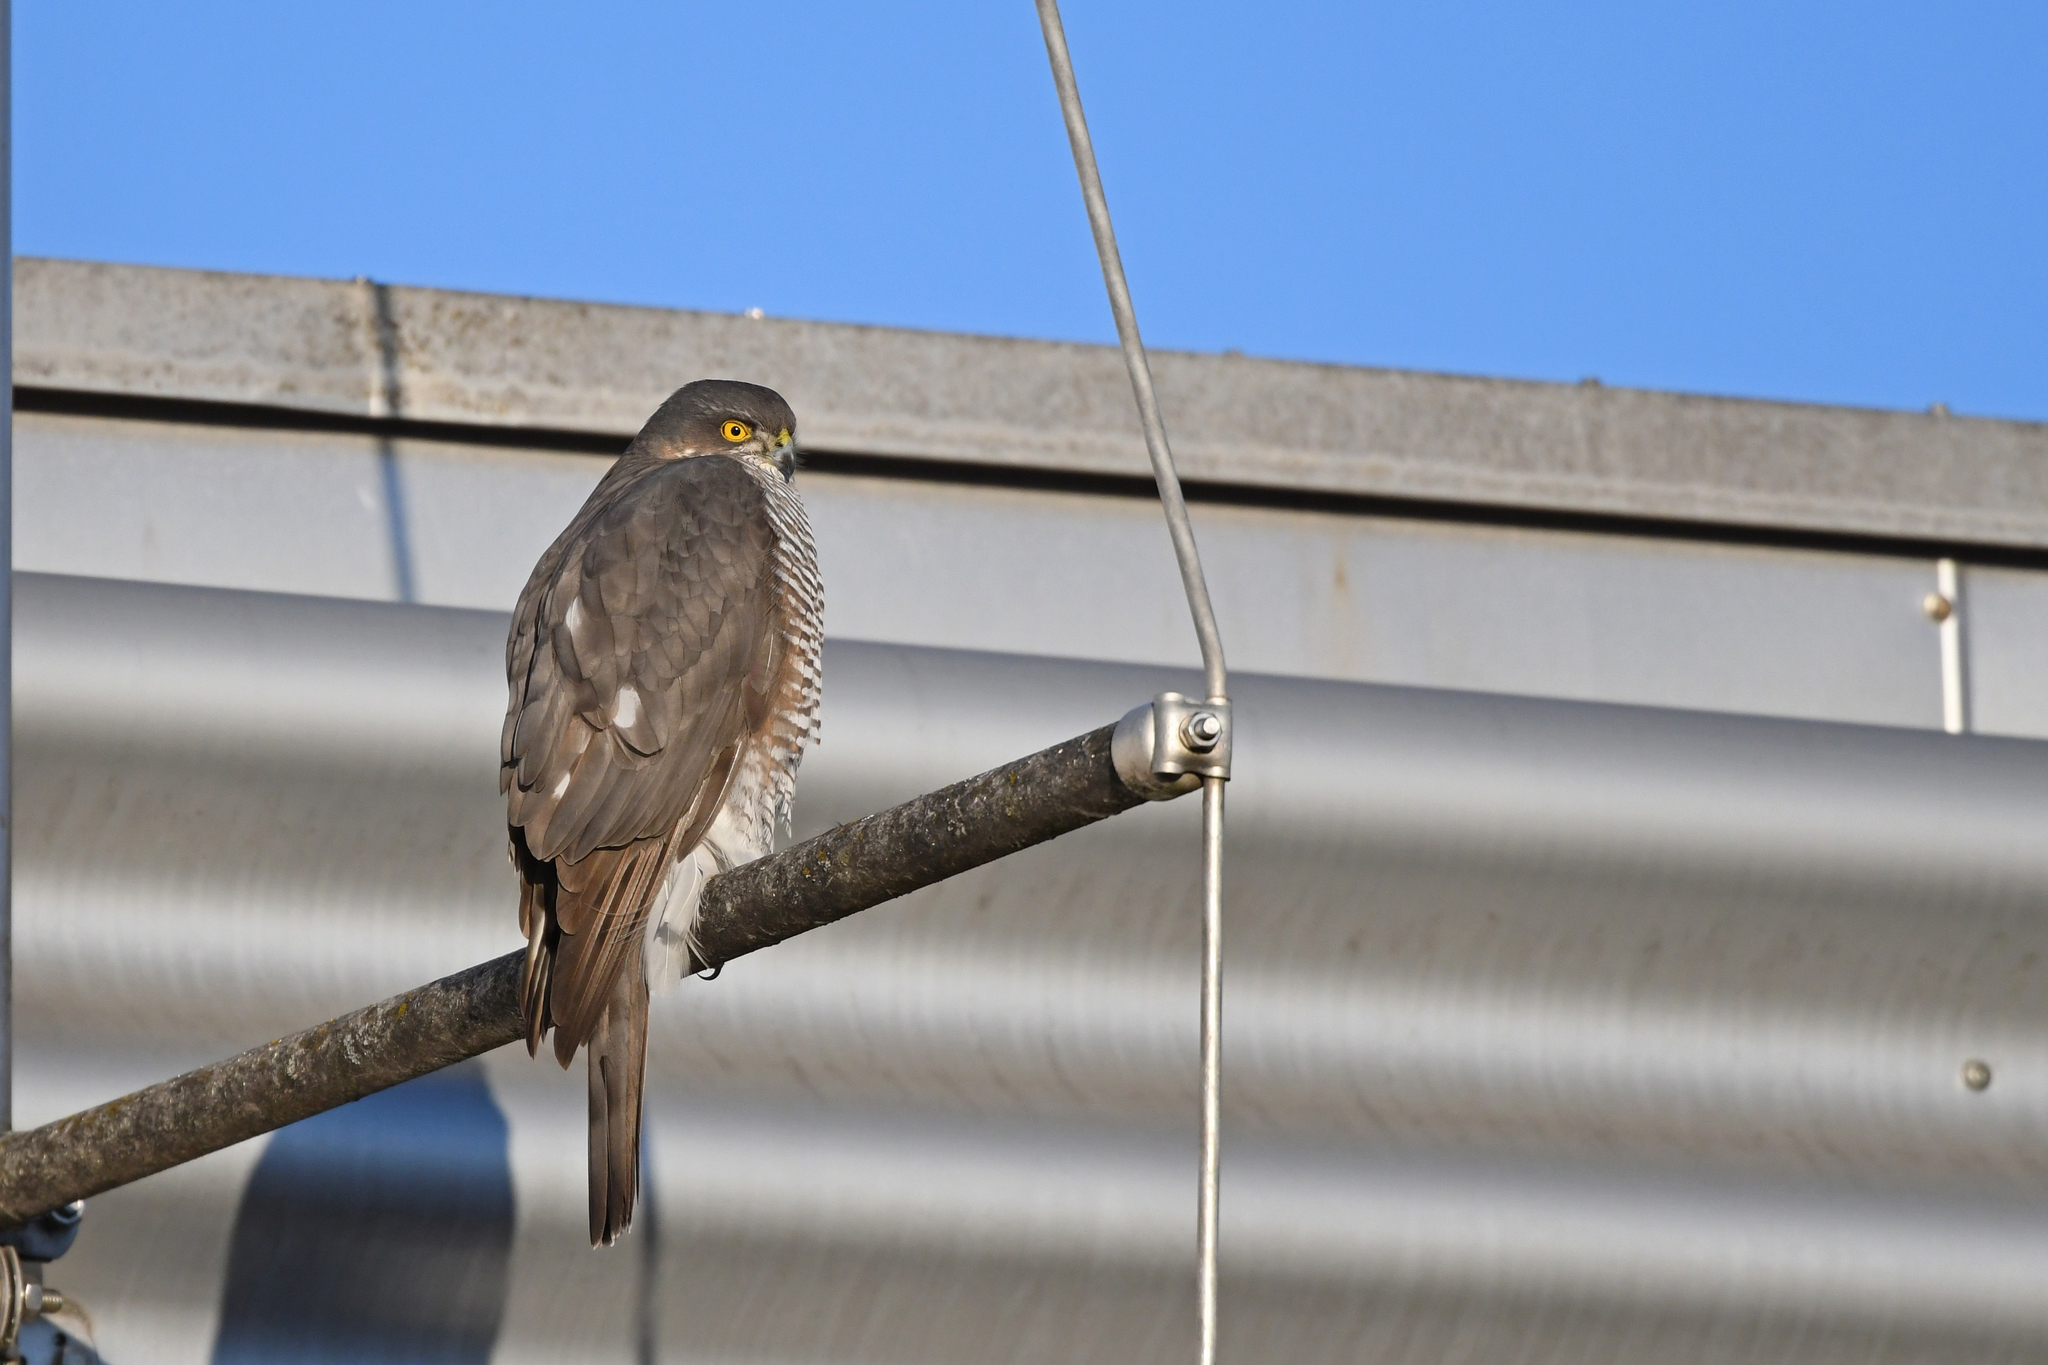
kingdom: Animalia
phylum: Chordata
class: Aves
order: Accipitriformes
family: Accipitridae
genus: Accipiter
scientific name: Accipiter nisus
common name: Eurasian sparrowhawk
